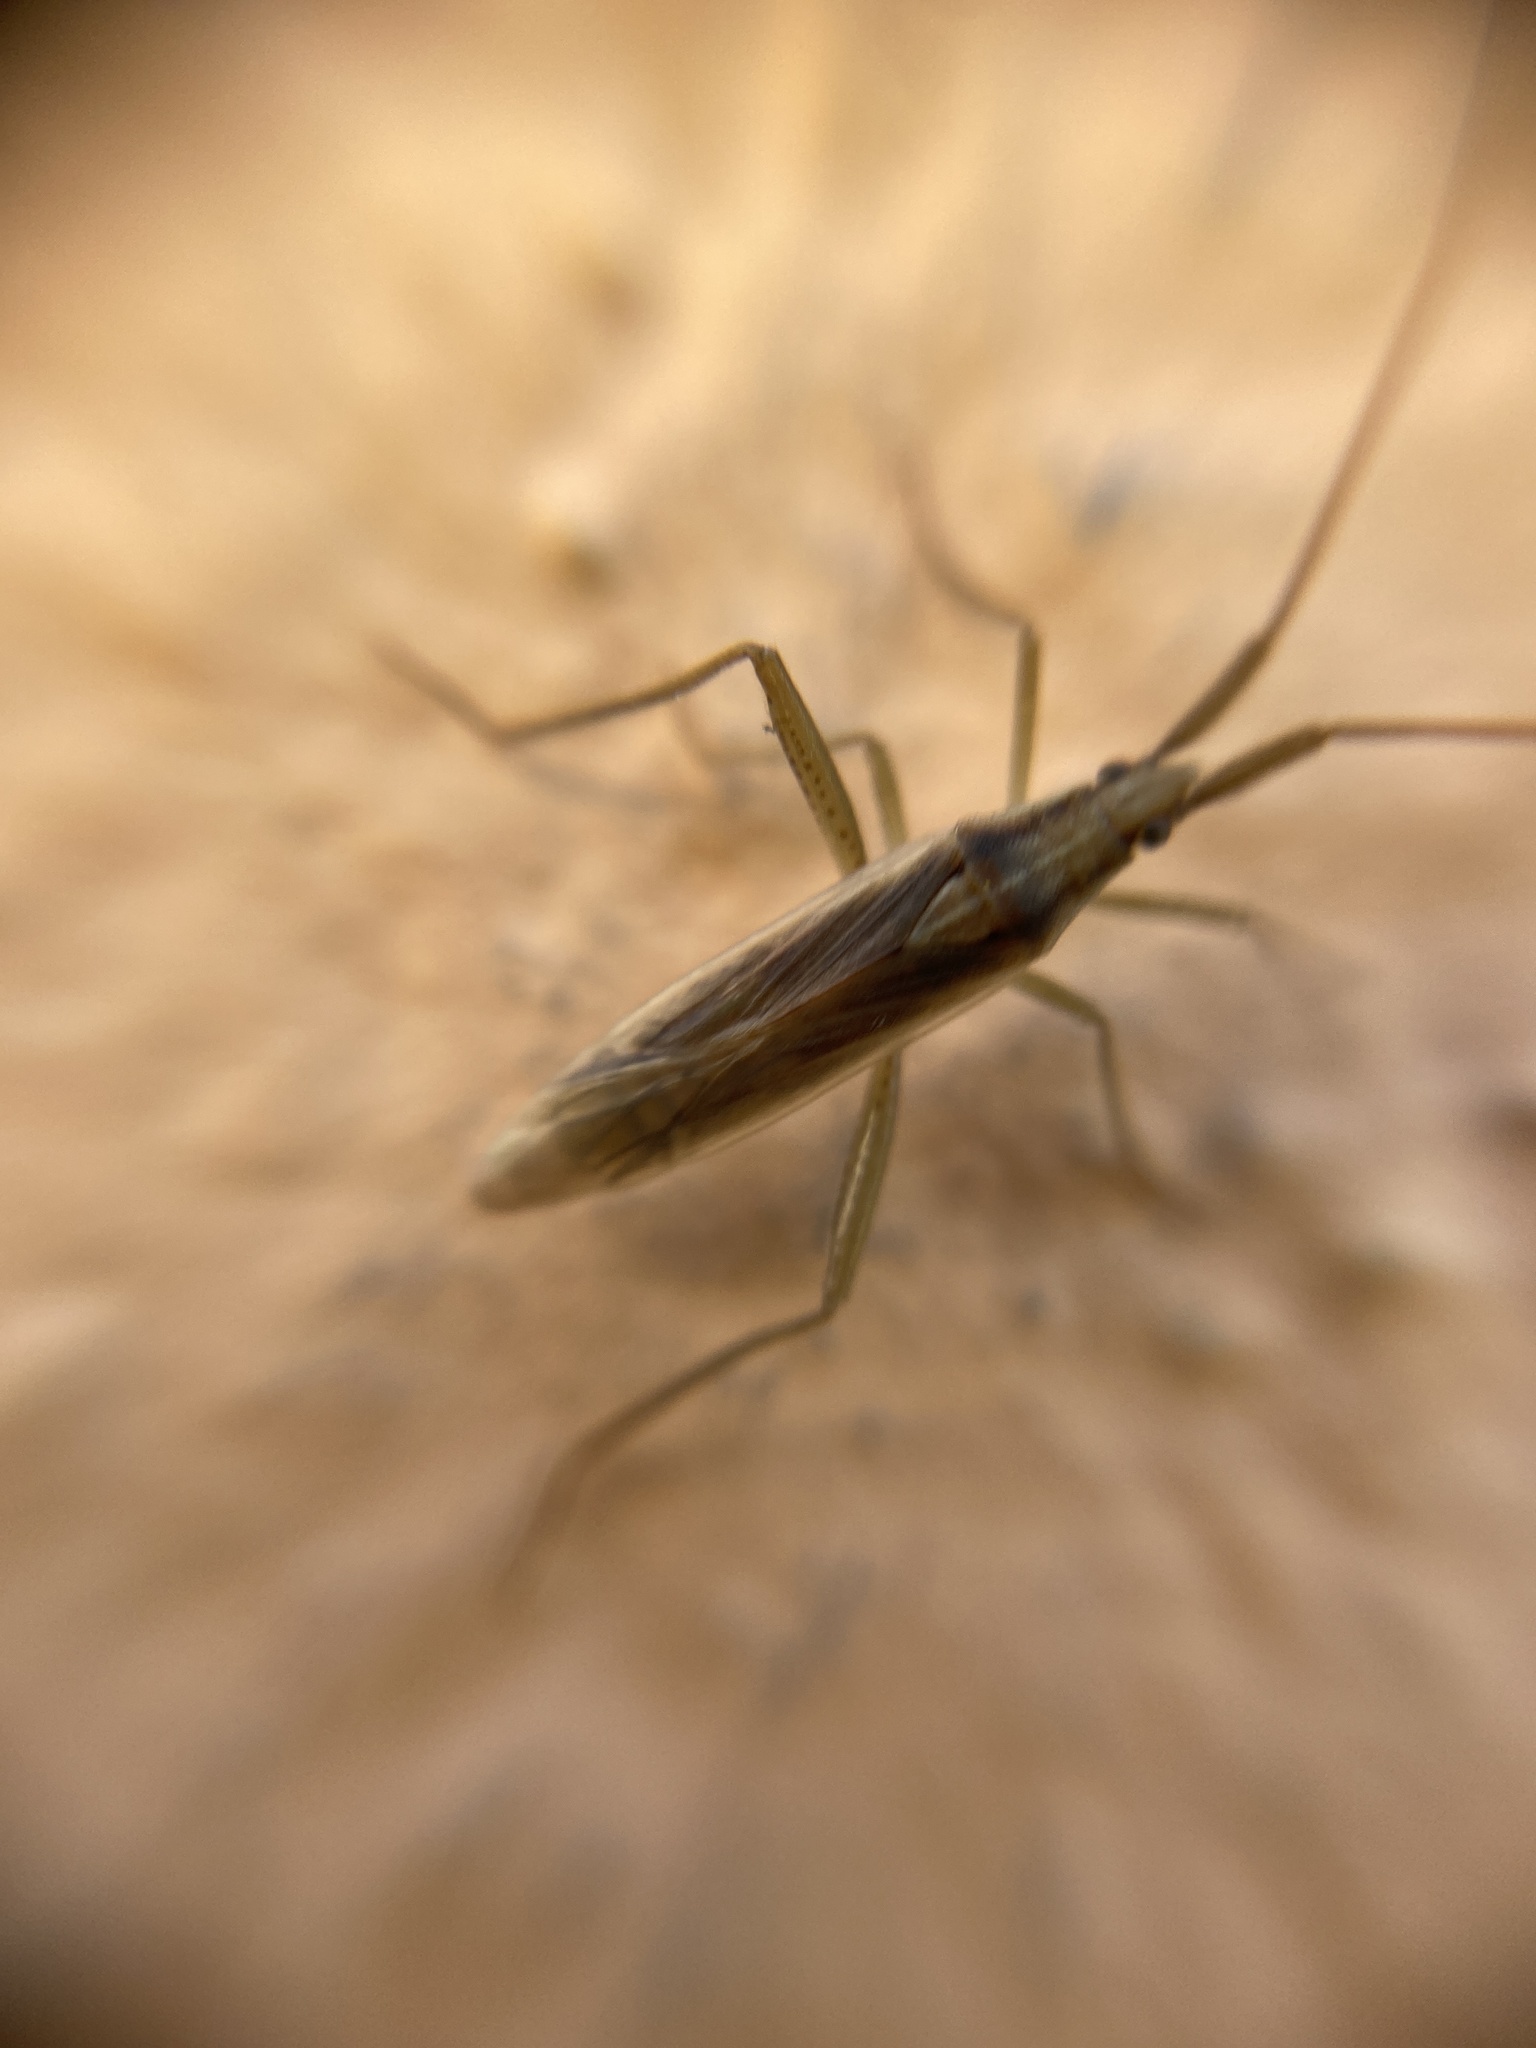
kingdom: Animalia
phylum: Arthropoda
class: Insecta
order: Hemiptera
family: Miridae
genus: Stenodema
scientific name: Stenodema laevigata
